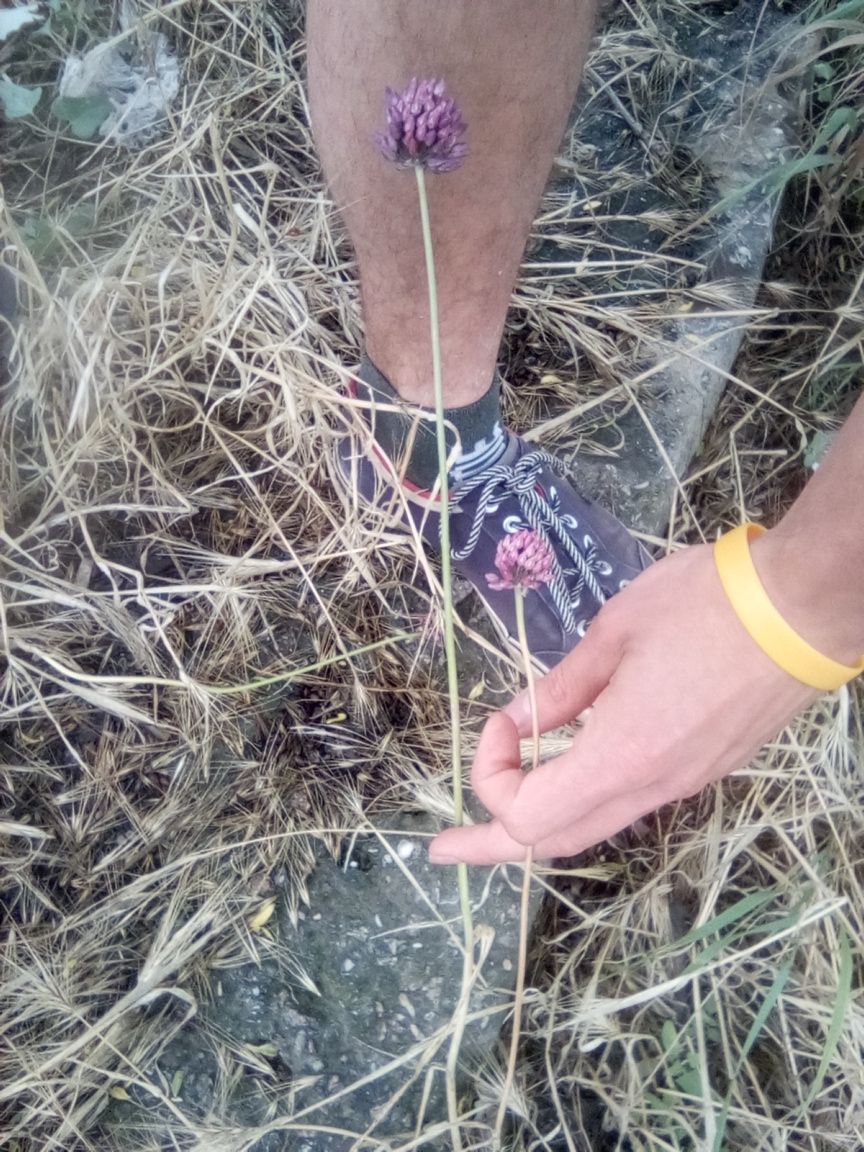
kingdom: Plantae
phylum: Tracheophyta
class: Liliopsida
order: Asparagales
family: Amaryllidaceae
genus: Allium
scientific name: Allium rotundum
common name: Sand leek
